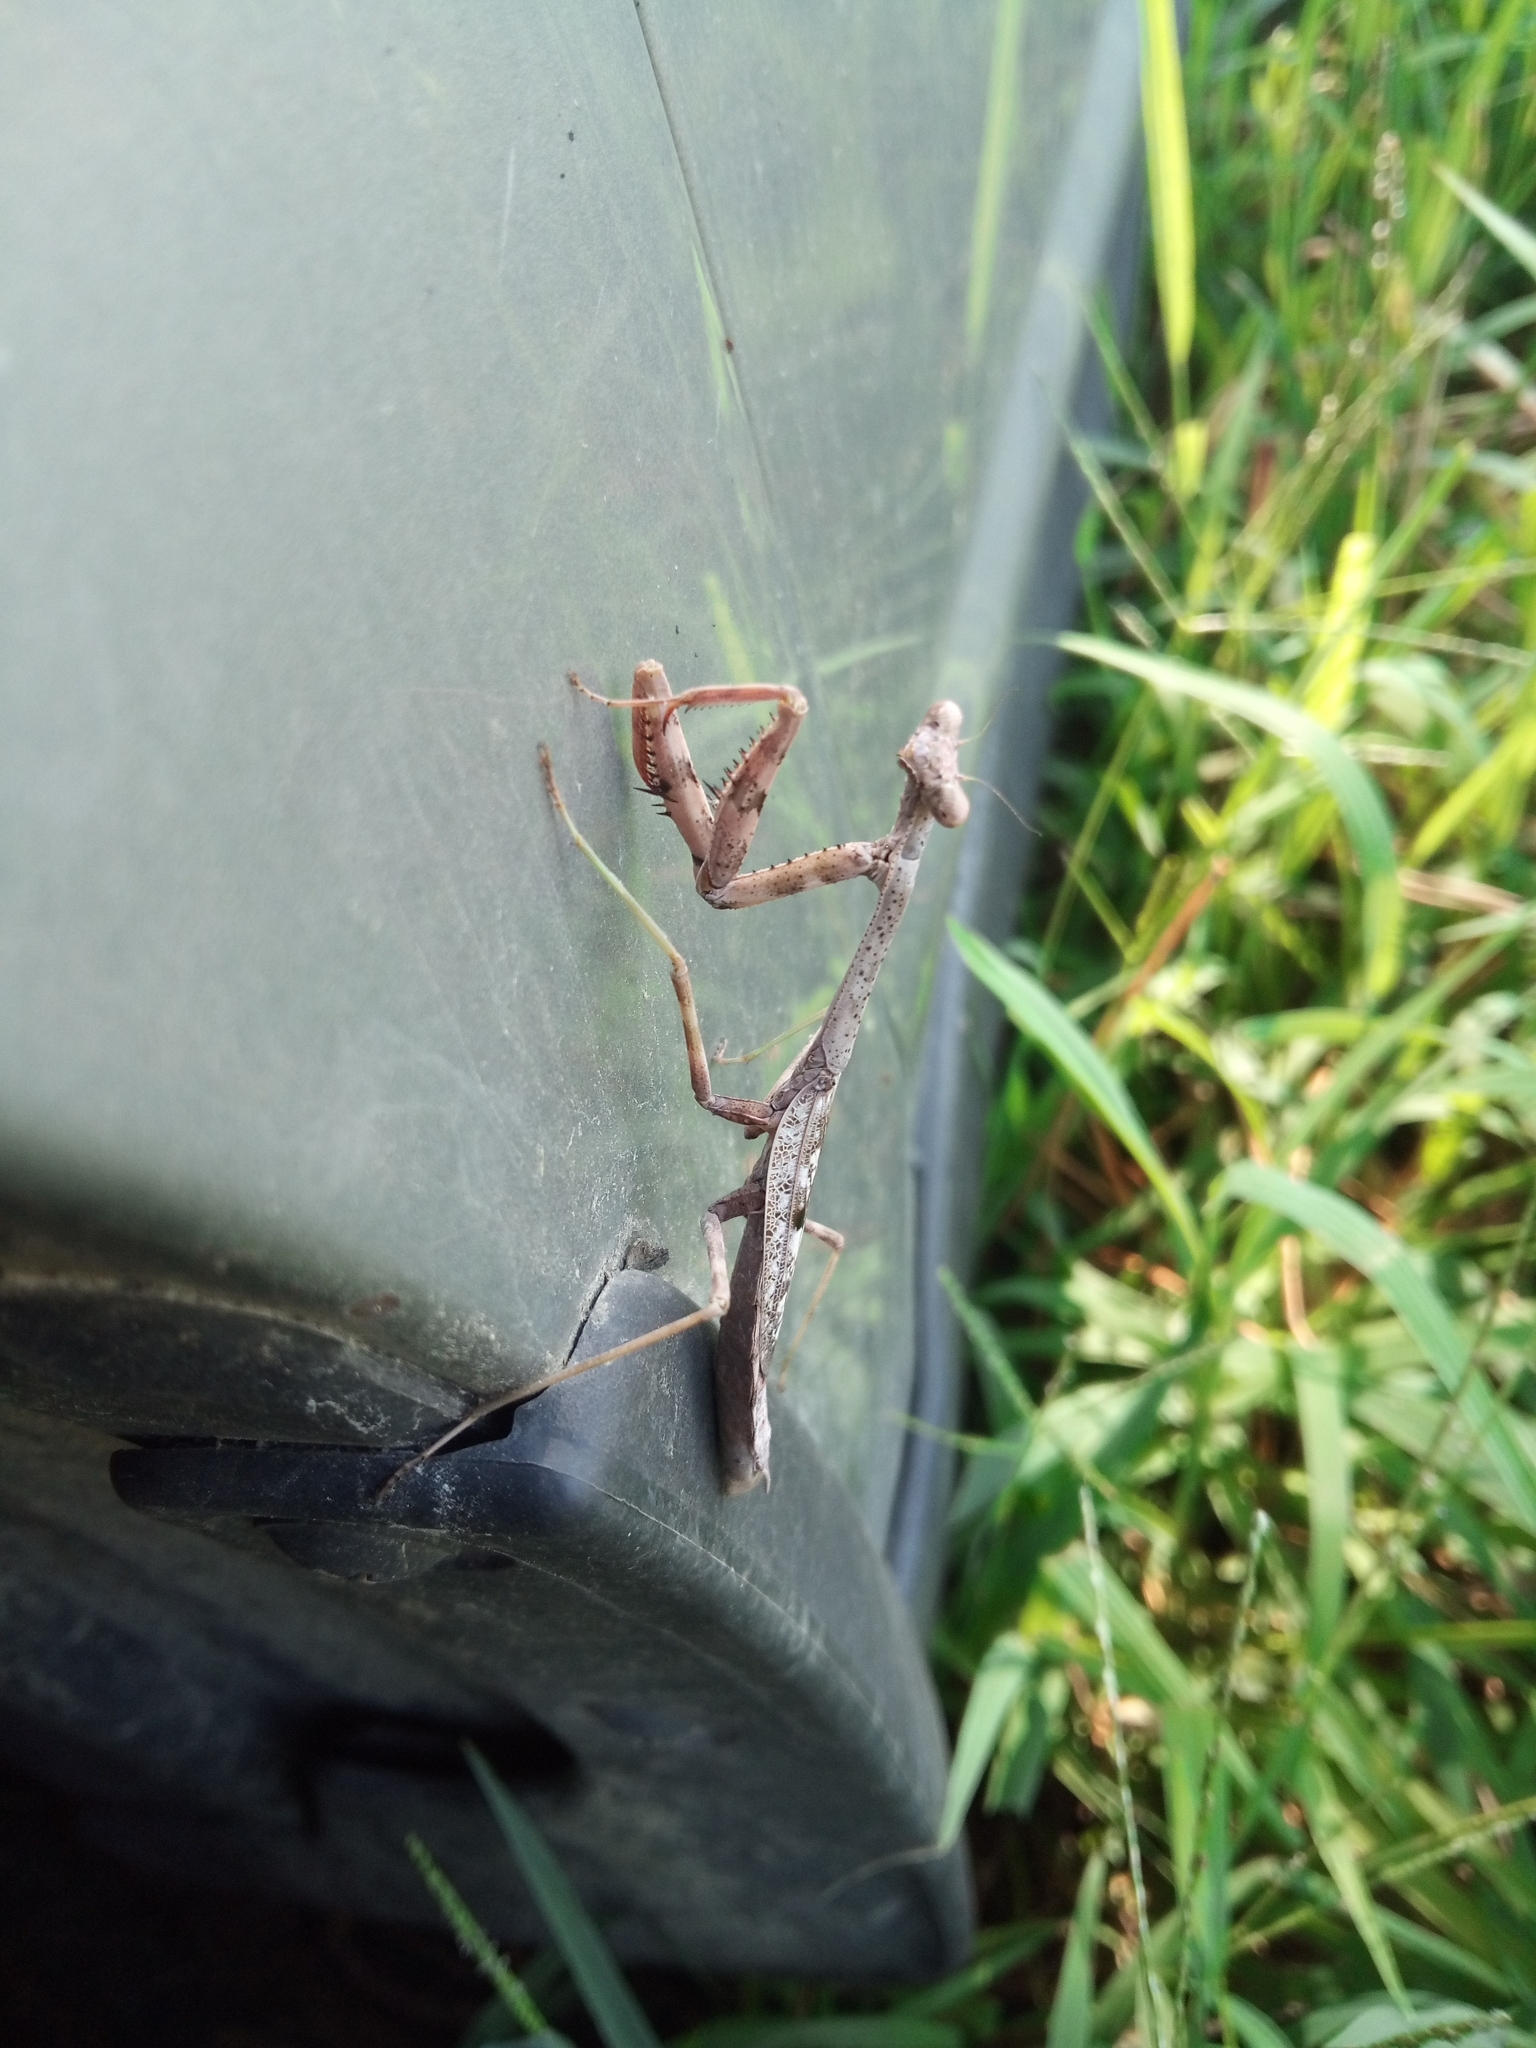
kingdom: Animalia
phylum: Arthropoda
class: Insecta
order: Mantodea
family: Mantidae
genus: Stagmomantis
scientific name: Stagmomantis carolina
